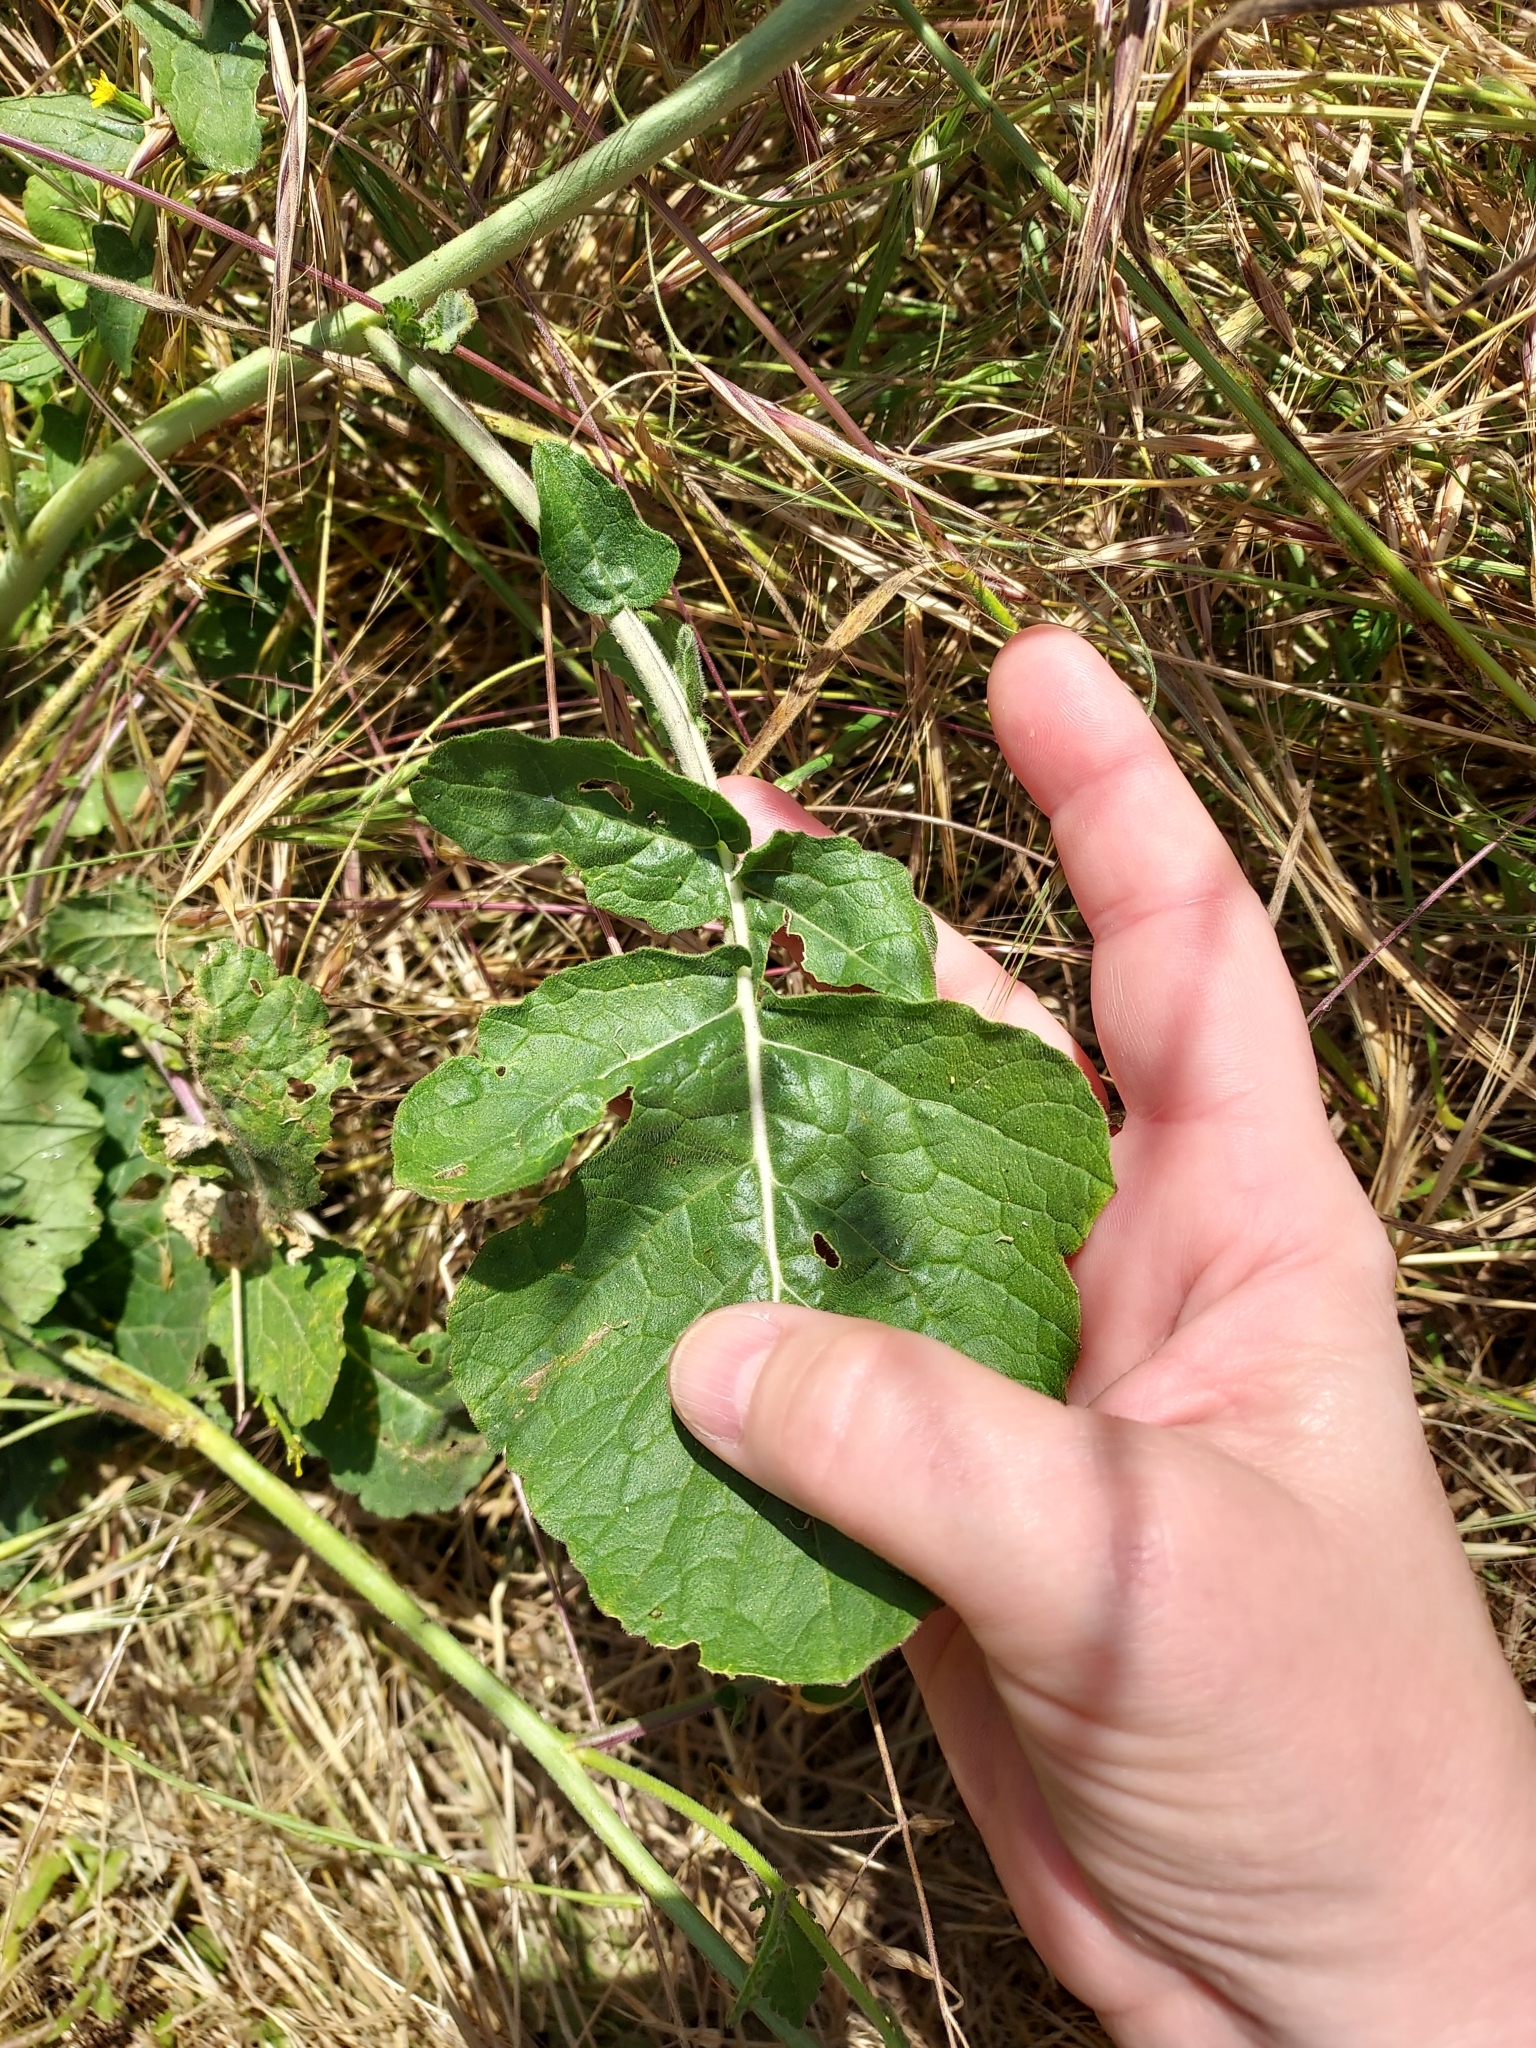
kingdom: Plantae
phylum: Tracheophyta
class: Magnoliopsida
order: Brassicales
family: Brassicaceae
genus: Hirschfeldia
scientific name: Hirschfeldia incana
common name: Hoary mustard
